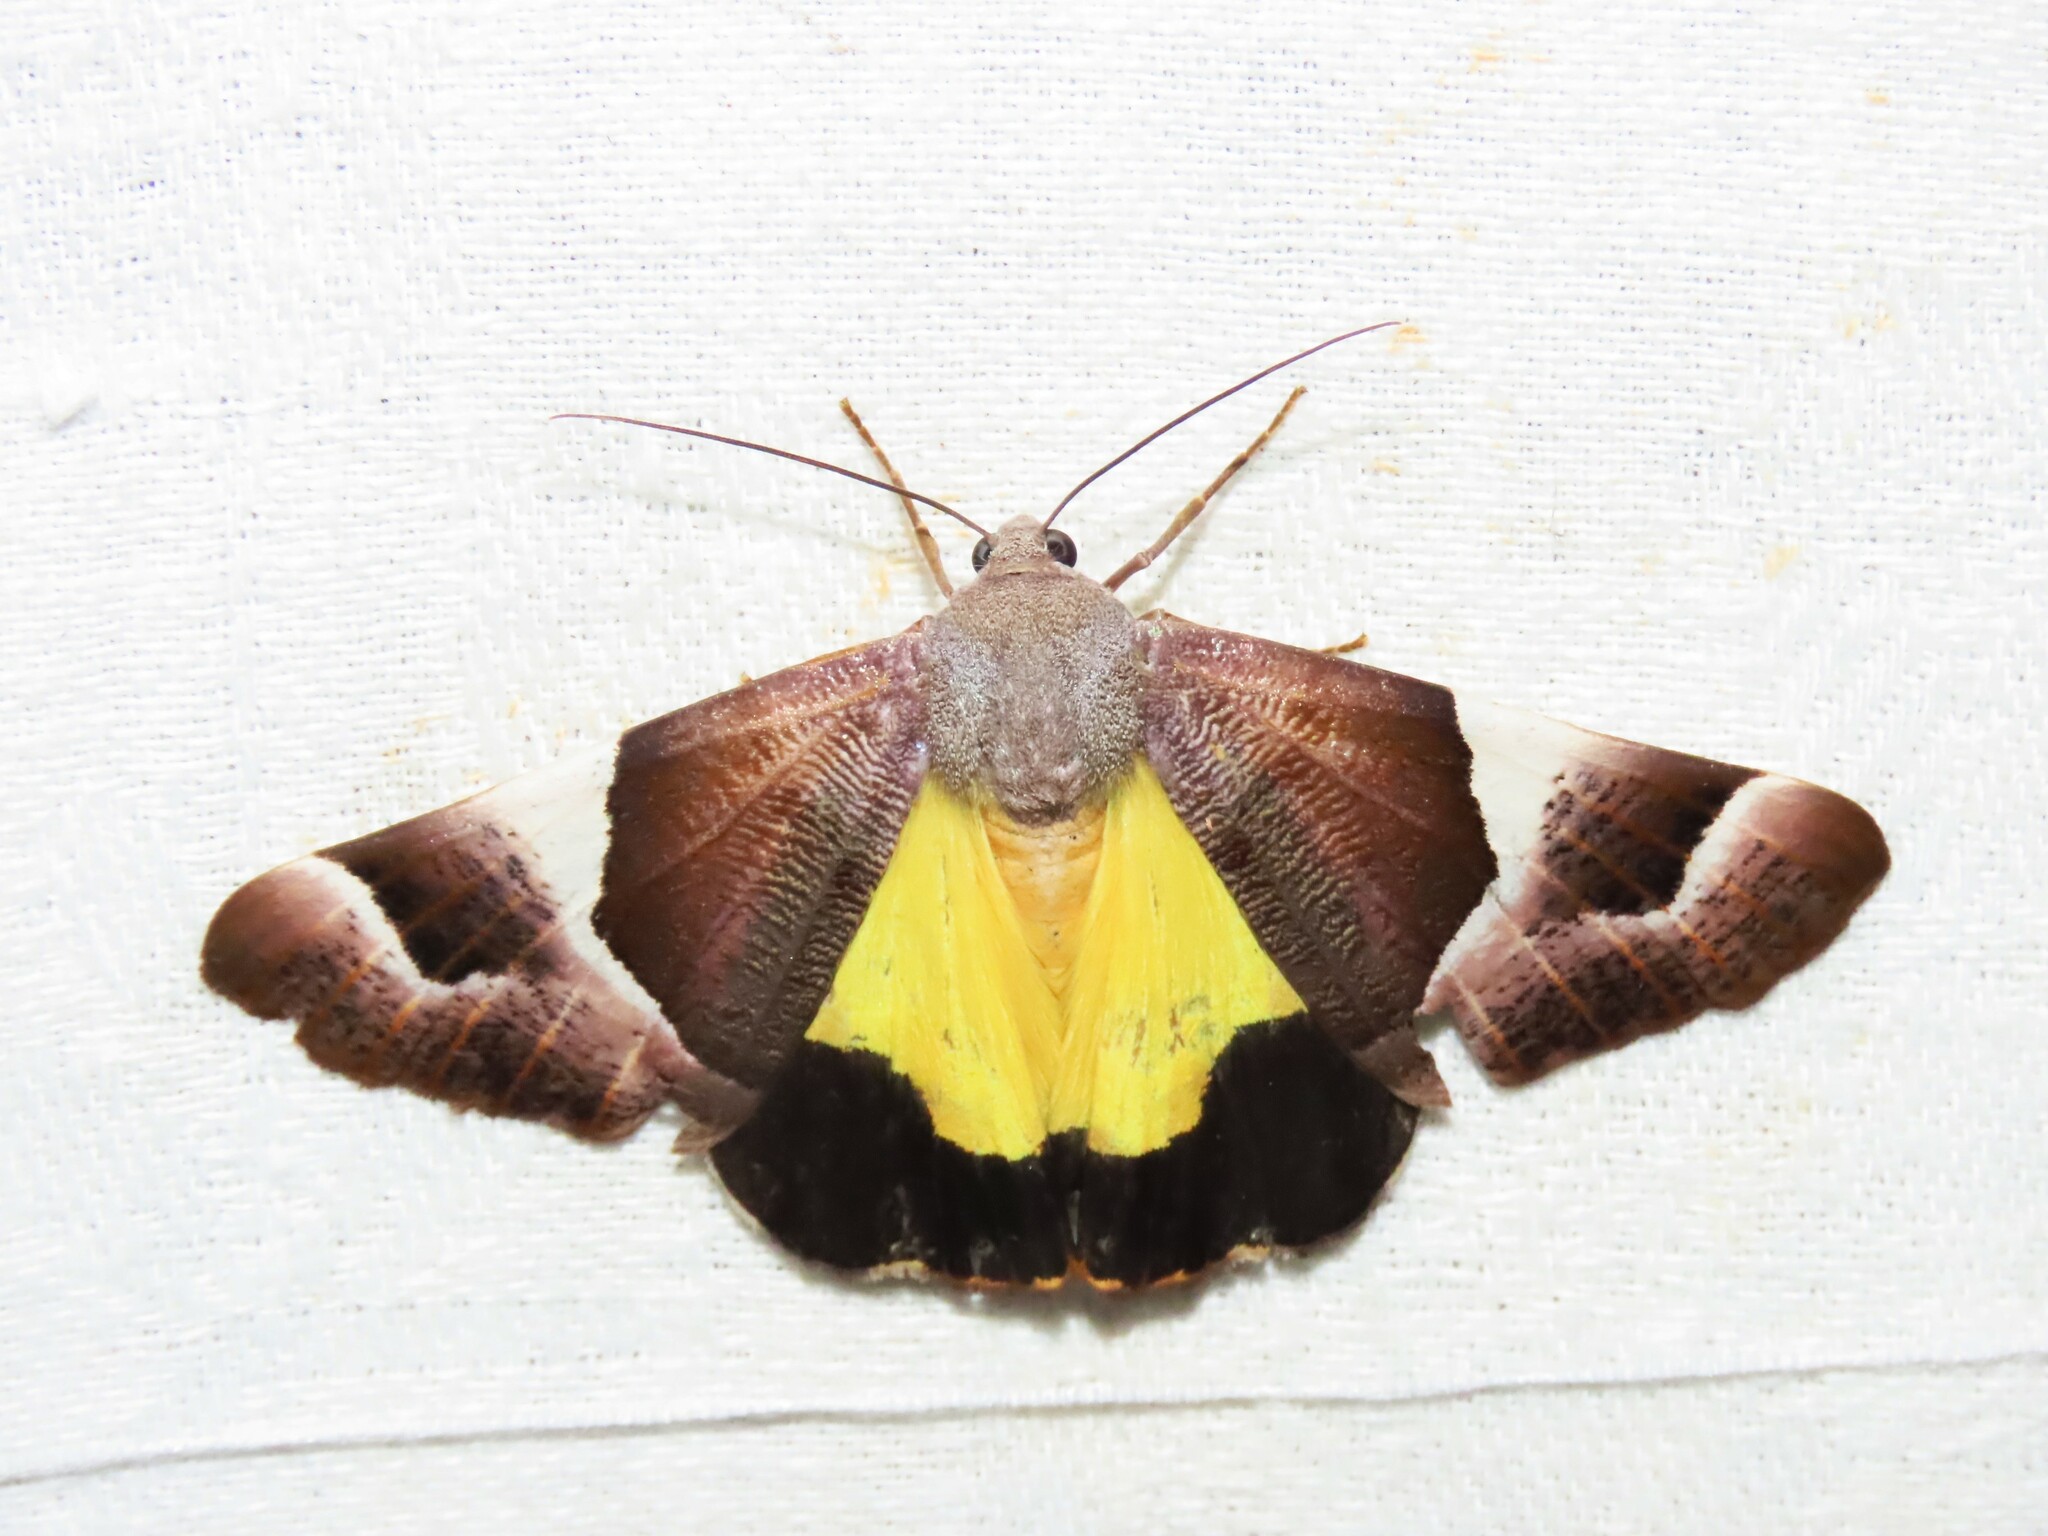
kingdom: Animalia
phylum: Arthropoda
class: Insecta
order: Lepidoptera
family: Geometridae
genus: Niceteria
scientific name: Niceteria macrocosma
